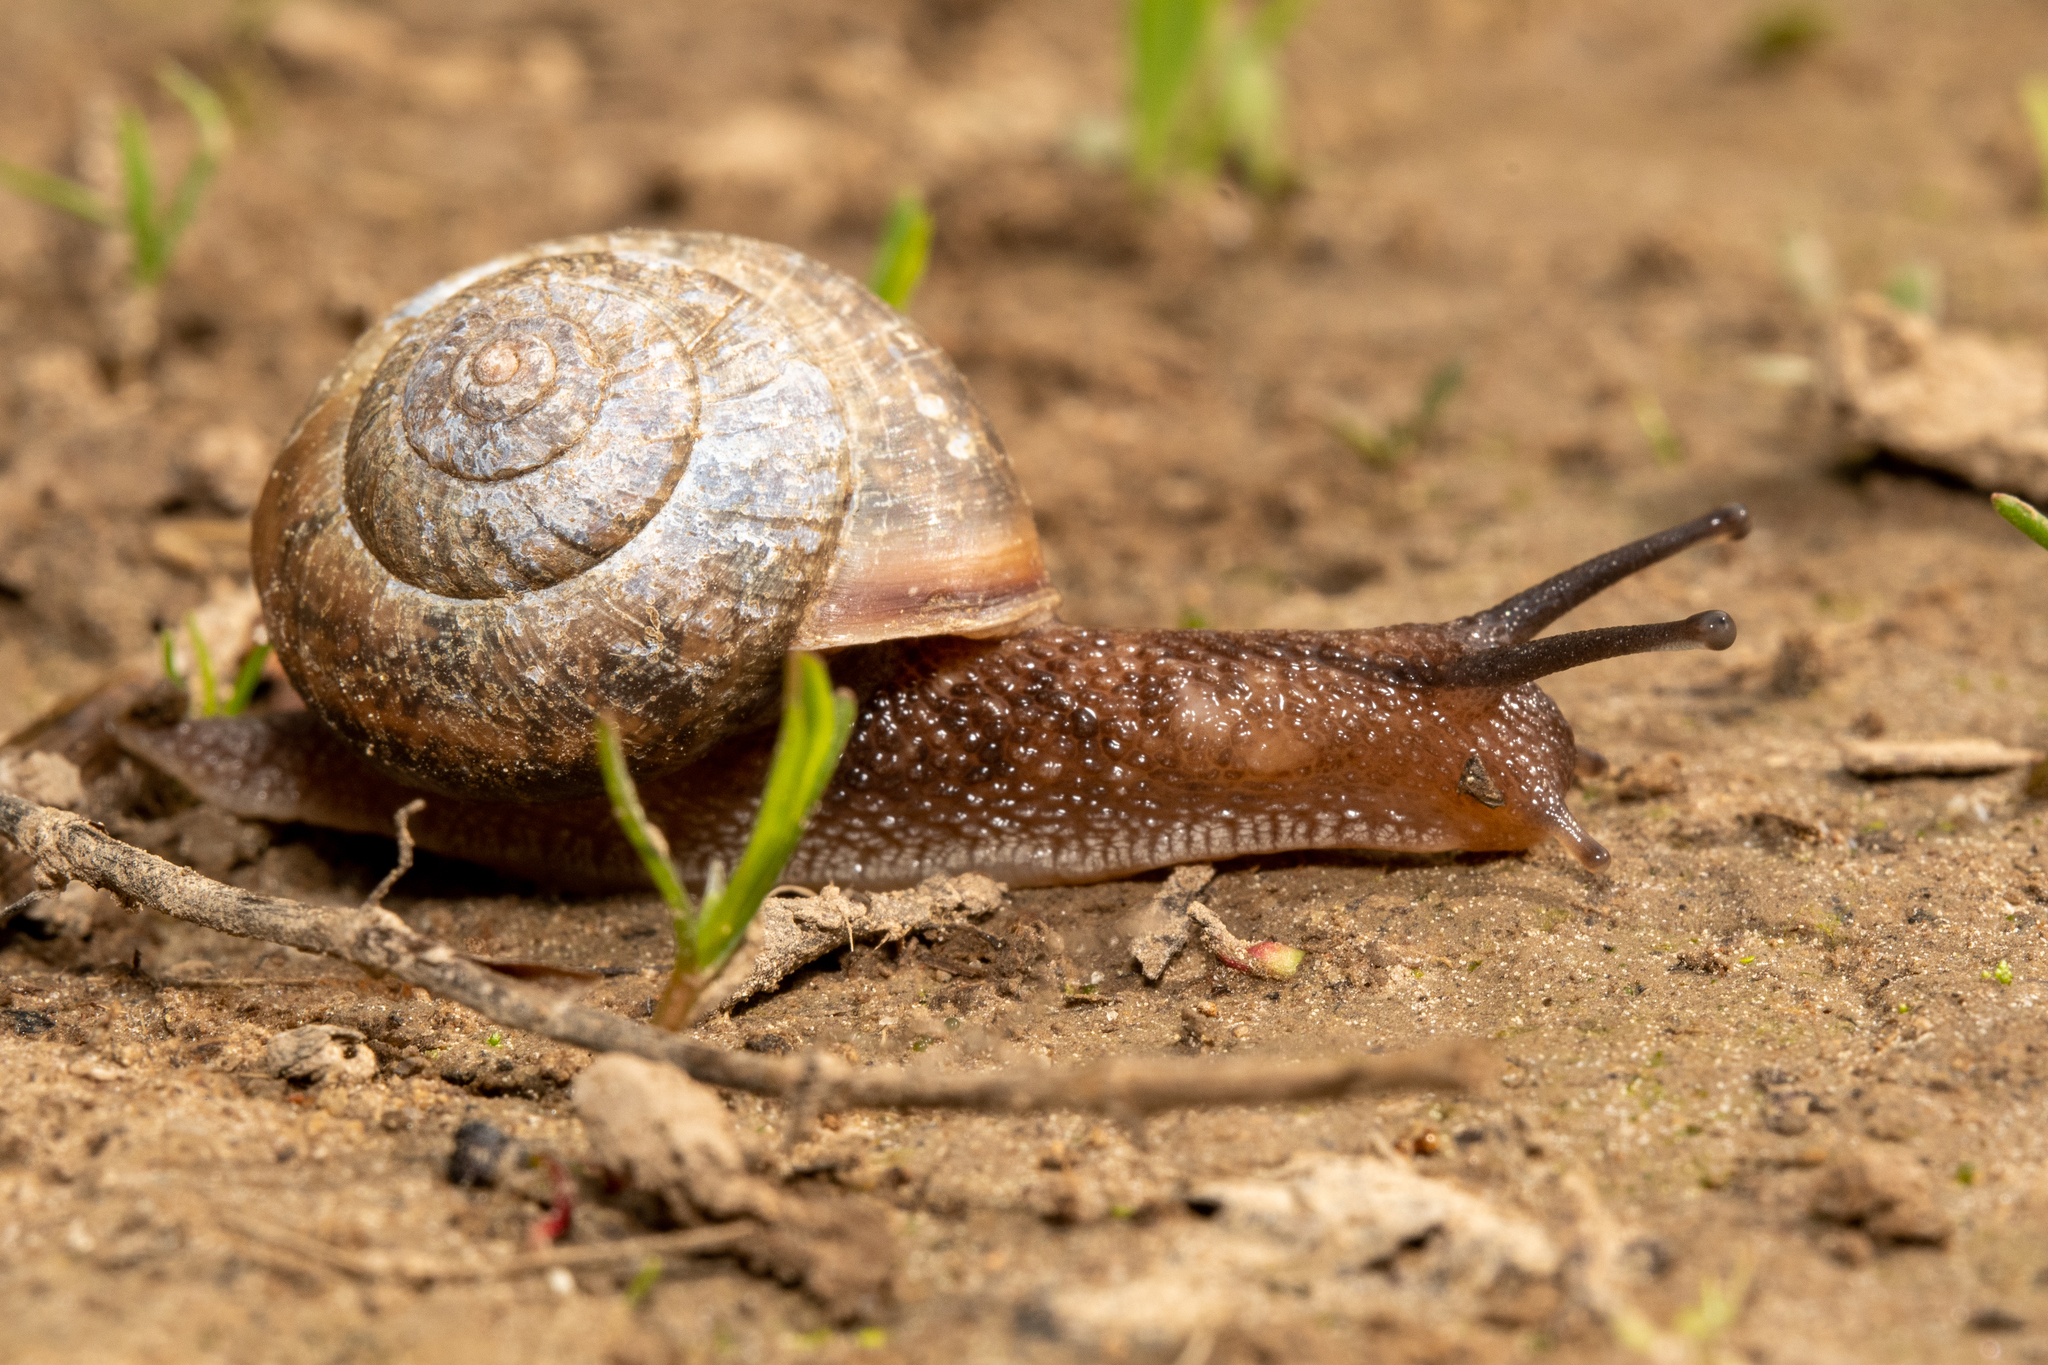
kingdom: Animalia
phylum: Mollusca
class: Gastropoda
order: Stylommatophora
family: Camaenidae
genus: Fruticicola
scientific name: Fruticicola fruticum
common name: Bush snail
